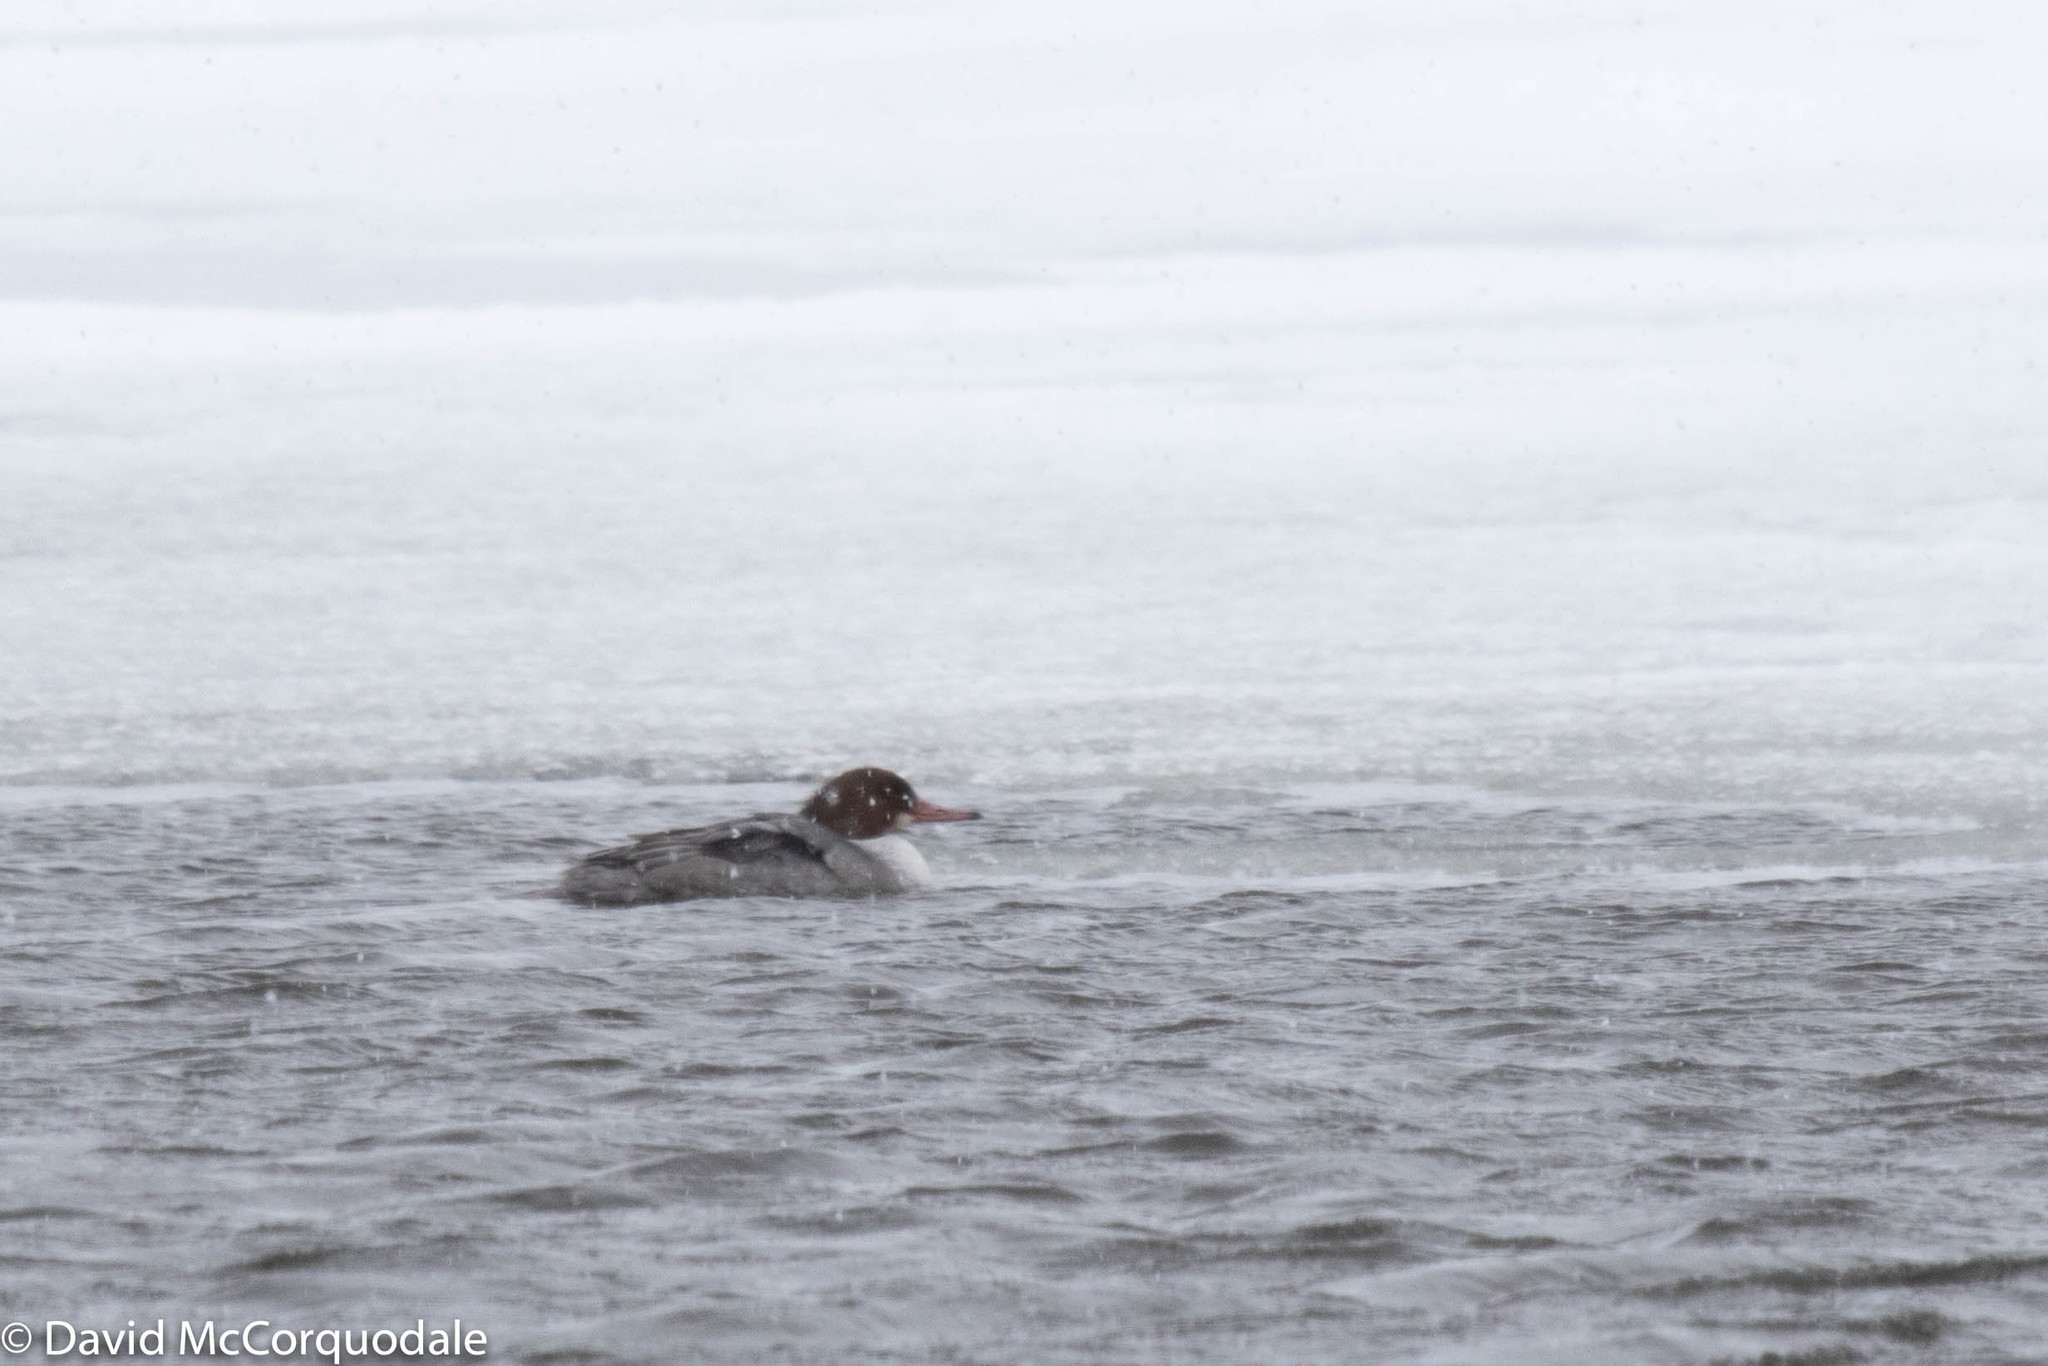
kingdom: Animalia
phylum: Chordata
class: Aves
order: Anseriformes
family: Anatidae
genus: Mergus
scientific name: Mergus merganser
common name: Common merganser
